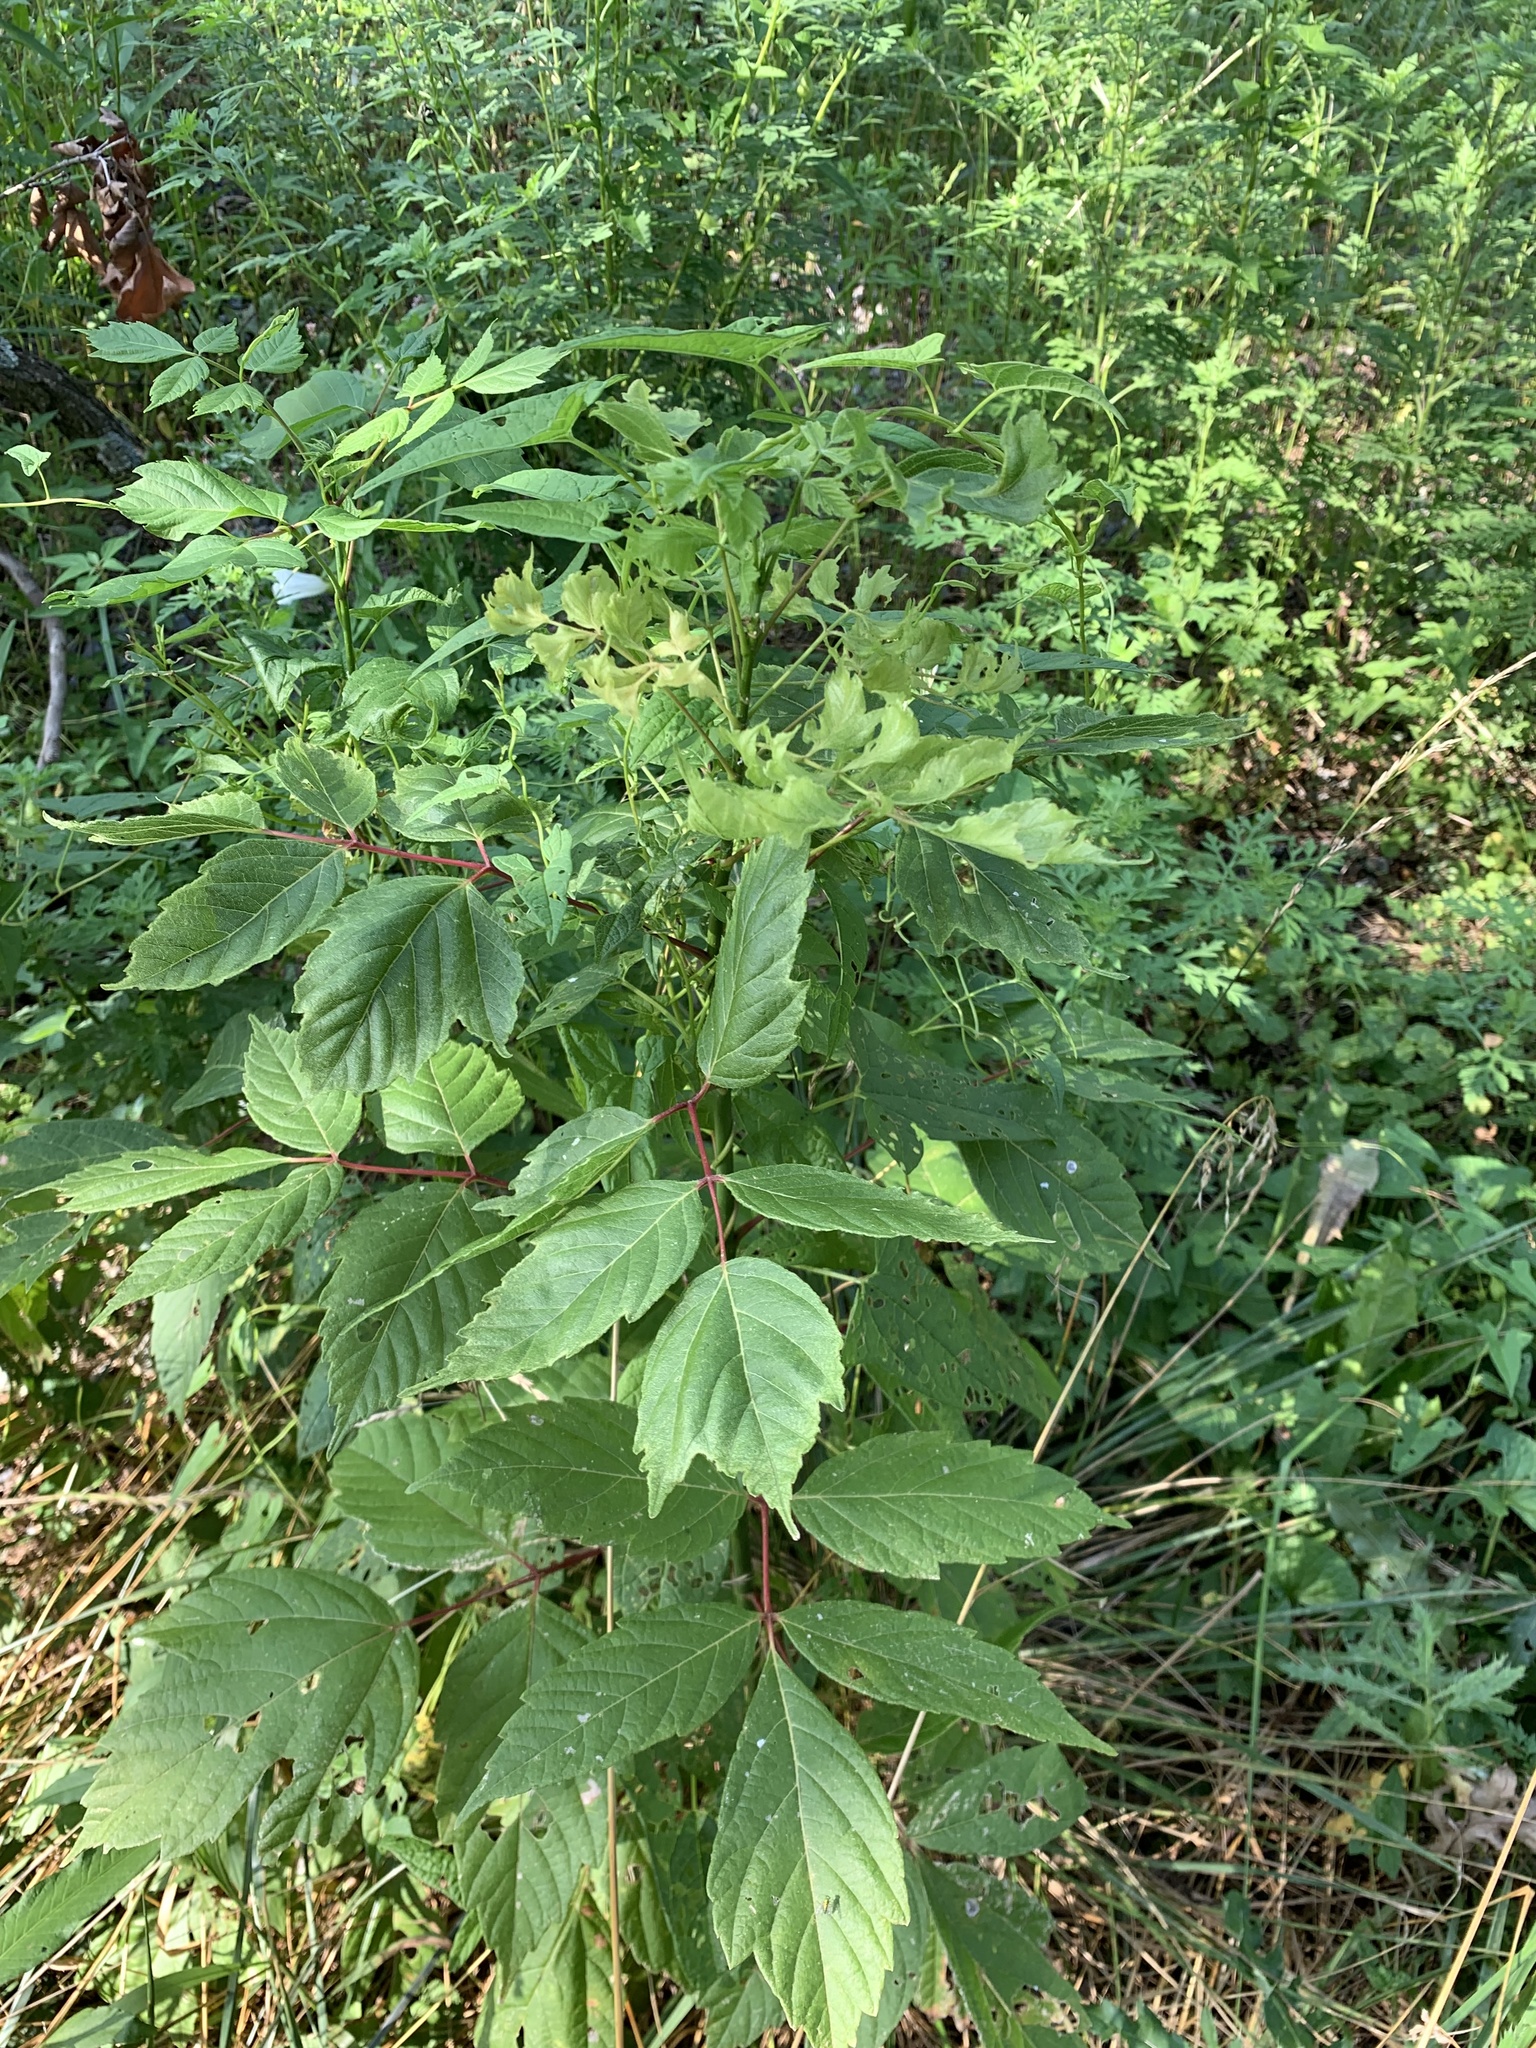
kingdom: Plantae
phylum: Tracheophyta
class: Magnoliopsida
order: Sapindales
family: Sapindaceae
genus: Acer
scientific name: Acer negundo
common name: Ashleaf maple
